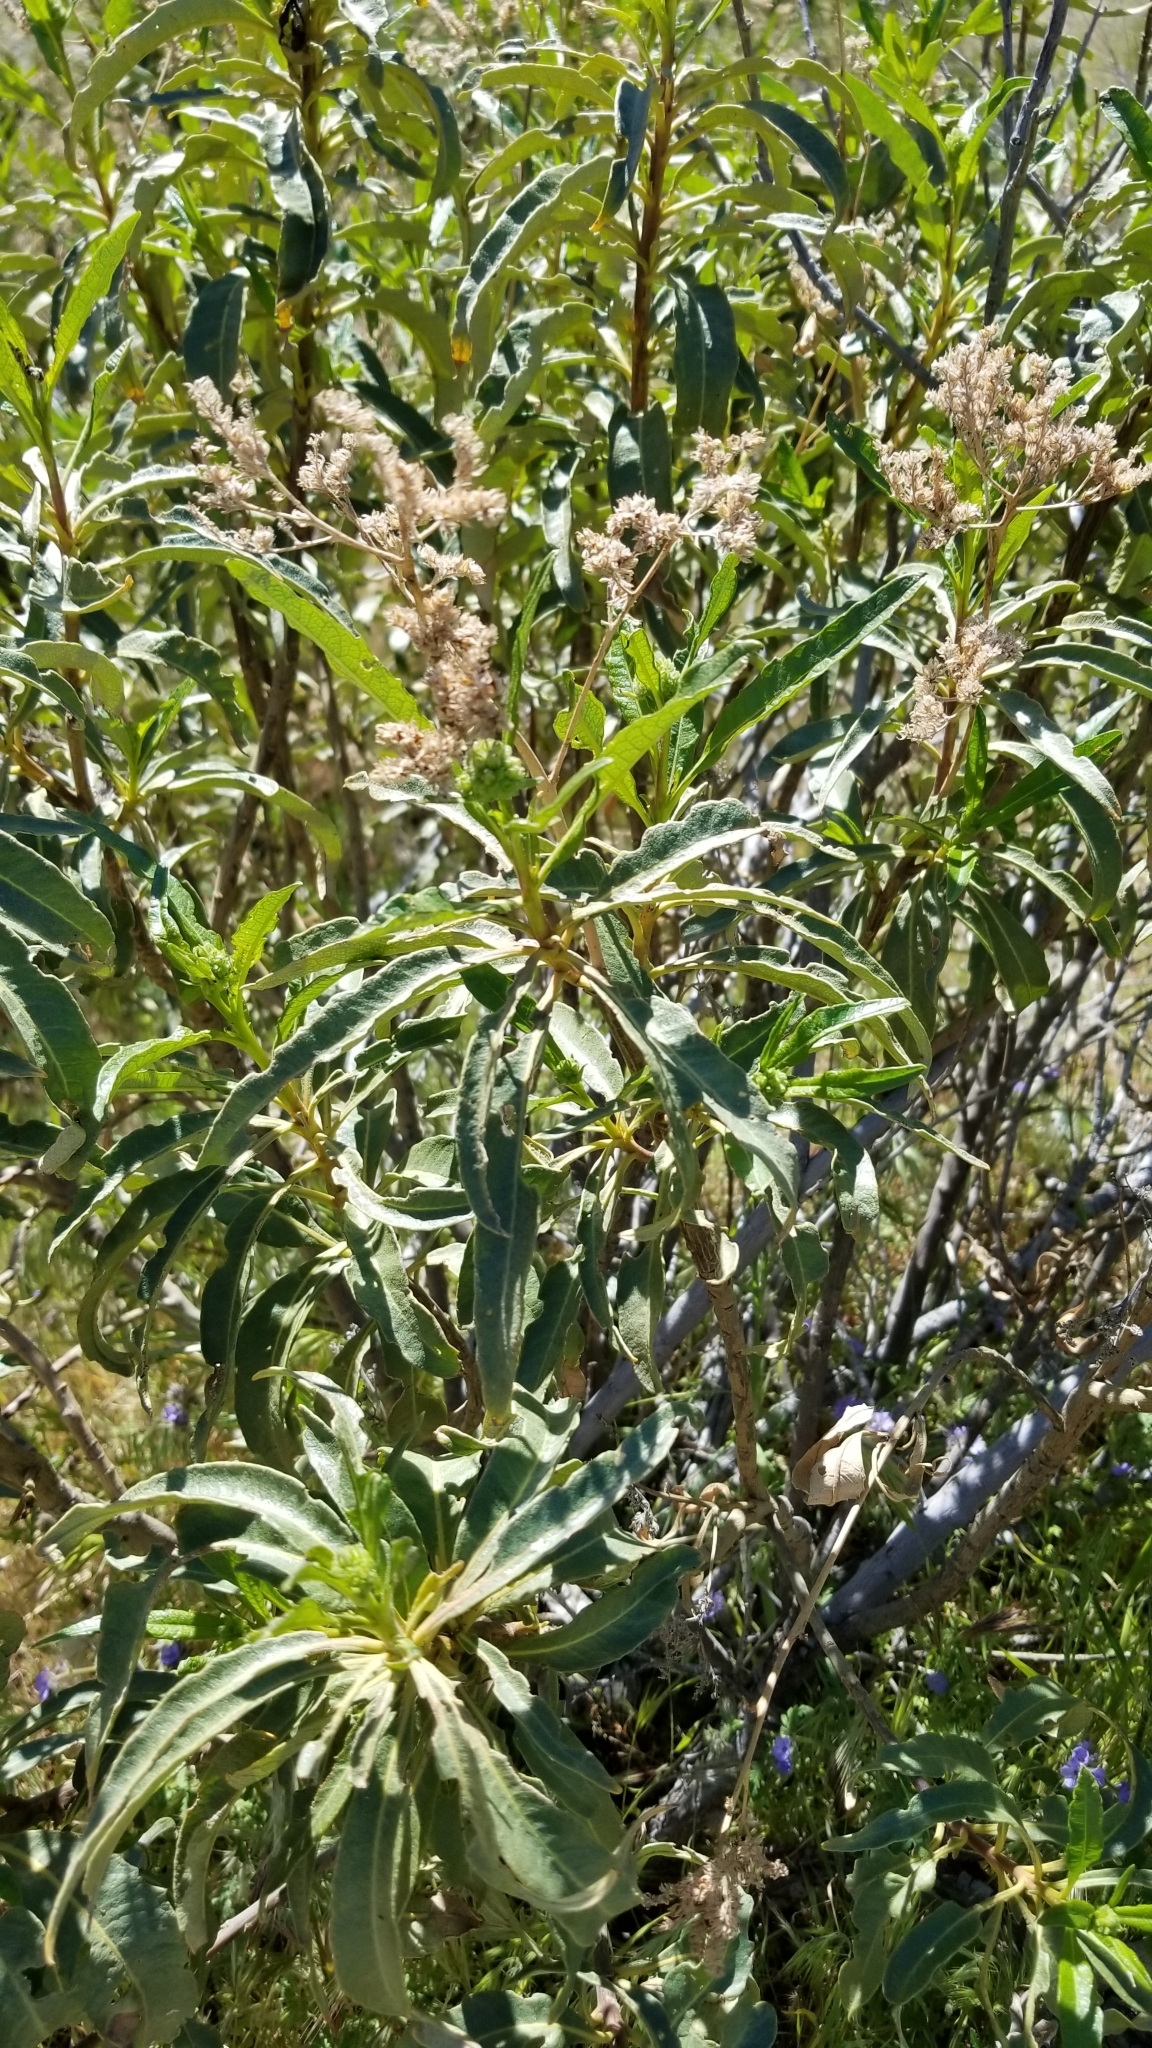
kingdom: Plantae
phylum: Tracheophyta
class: Magnoliopsida
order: Boraginales
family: Namaceae
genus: Eriodictyon
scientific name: Eriodictyon trichocalyx
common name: Hairy yerba-santa
